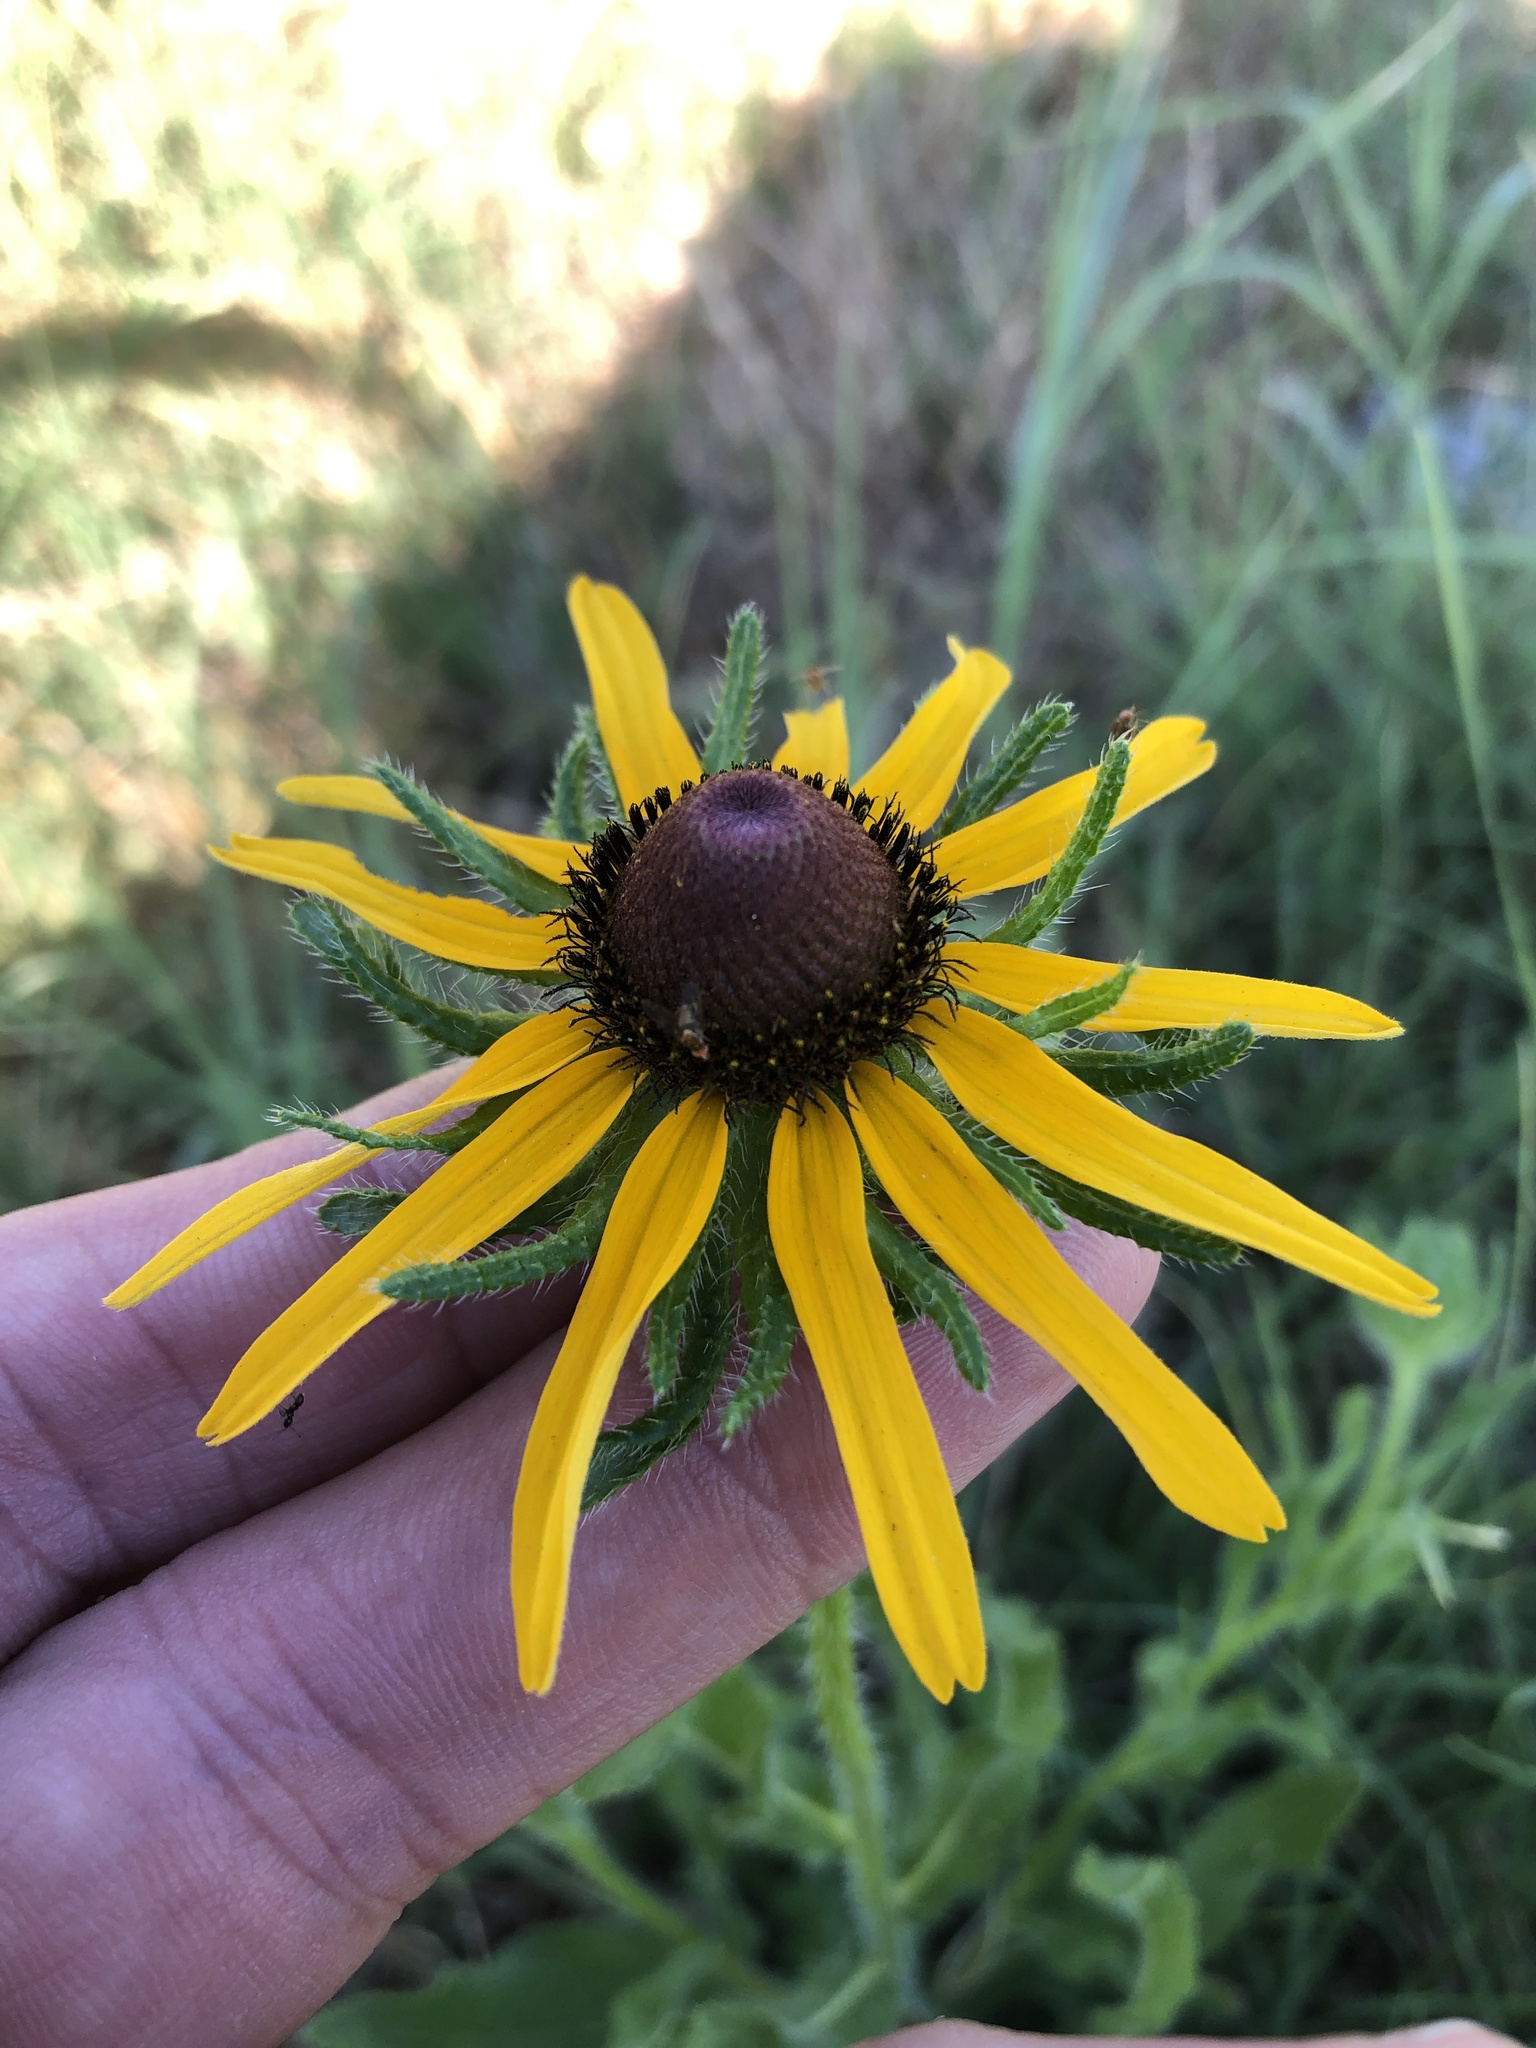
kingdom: Plantae
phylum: Tracheophyta
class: Magnoliopsida
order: Asterales
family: Asteraceae
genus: Rudbeckia
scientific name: Rudbeckia hirta
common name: Black-eyed-susan
